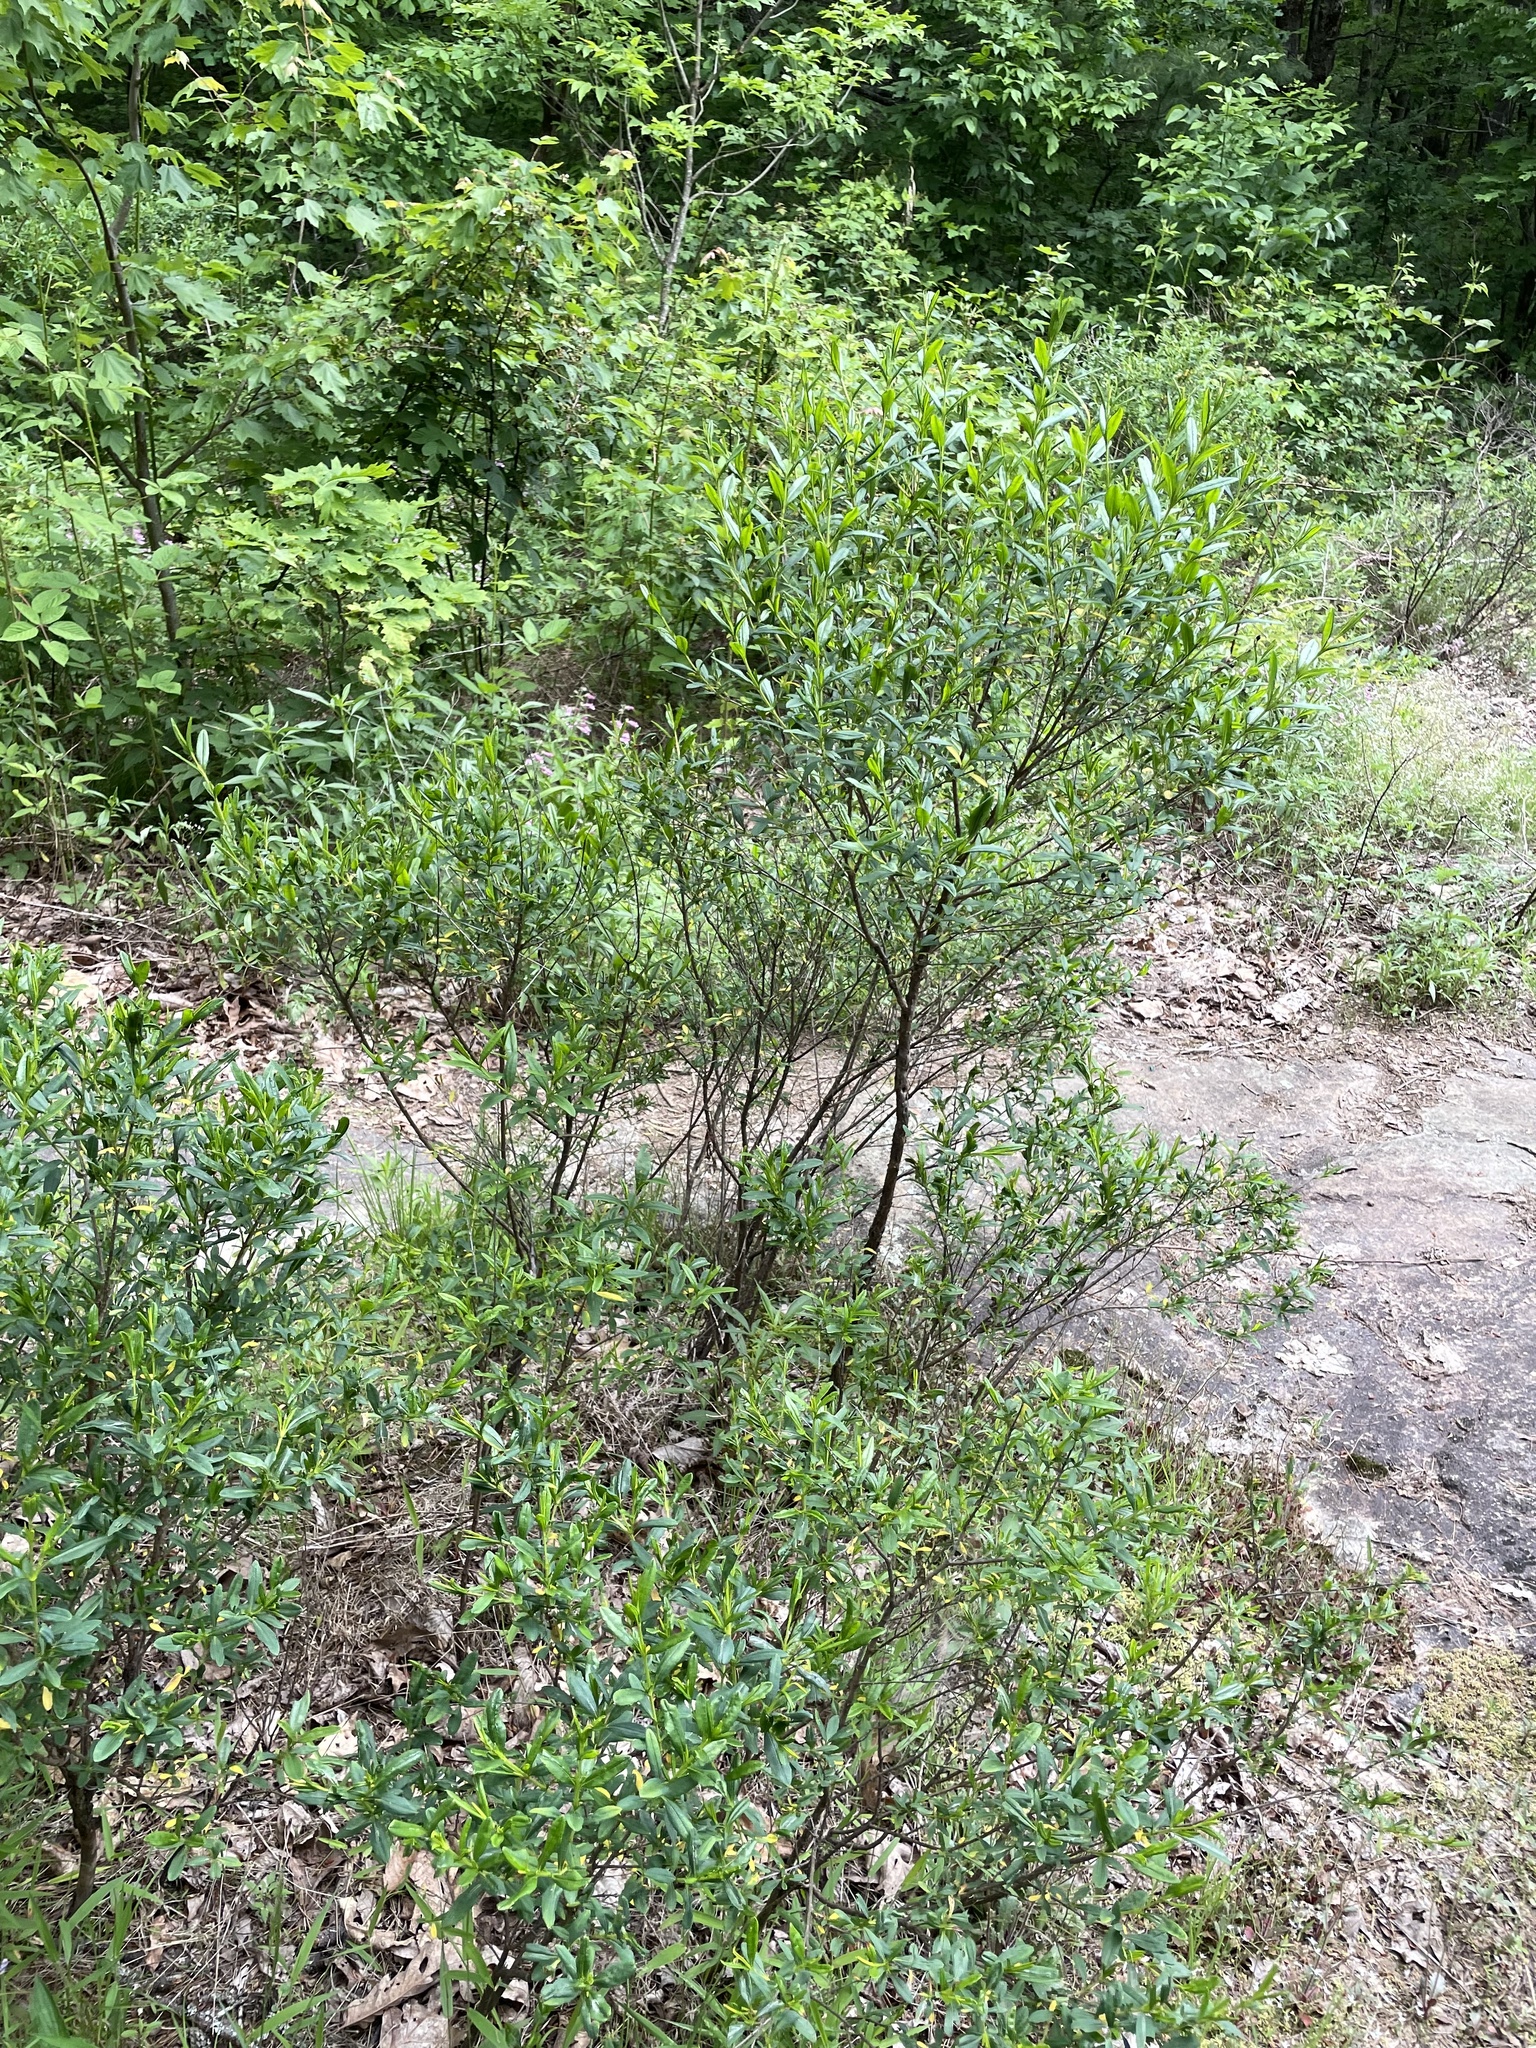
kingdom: Plantae
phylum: Tracheophyta
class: Magnoliopsida
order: Malpighiales
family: Hypericaceae
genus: Hypericum
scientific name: Hypericum prolificum
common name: Shrubby st. john's-wort
